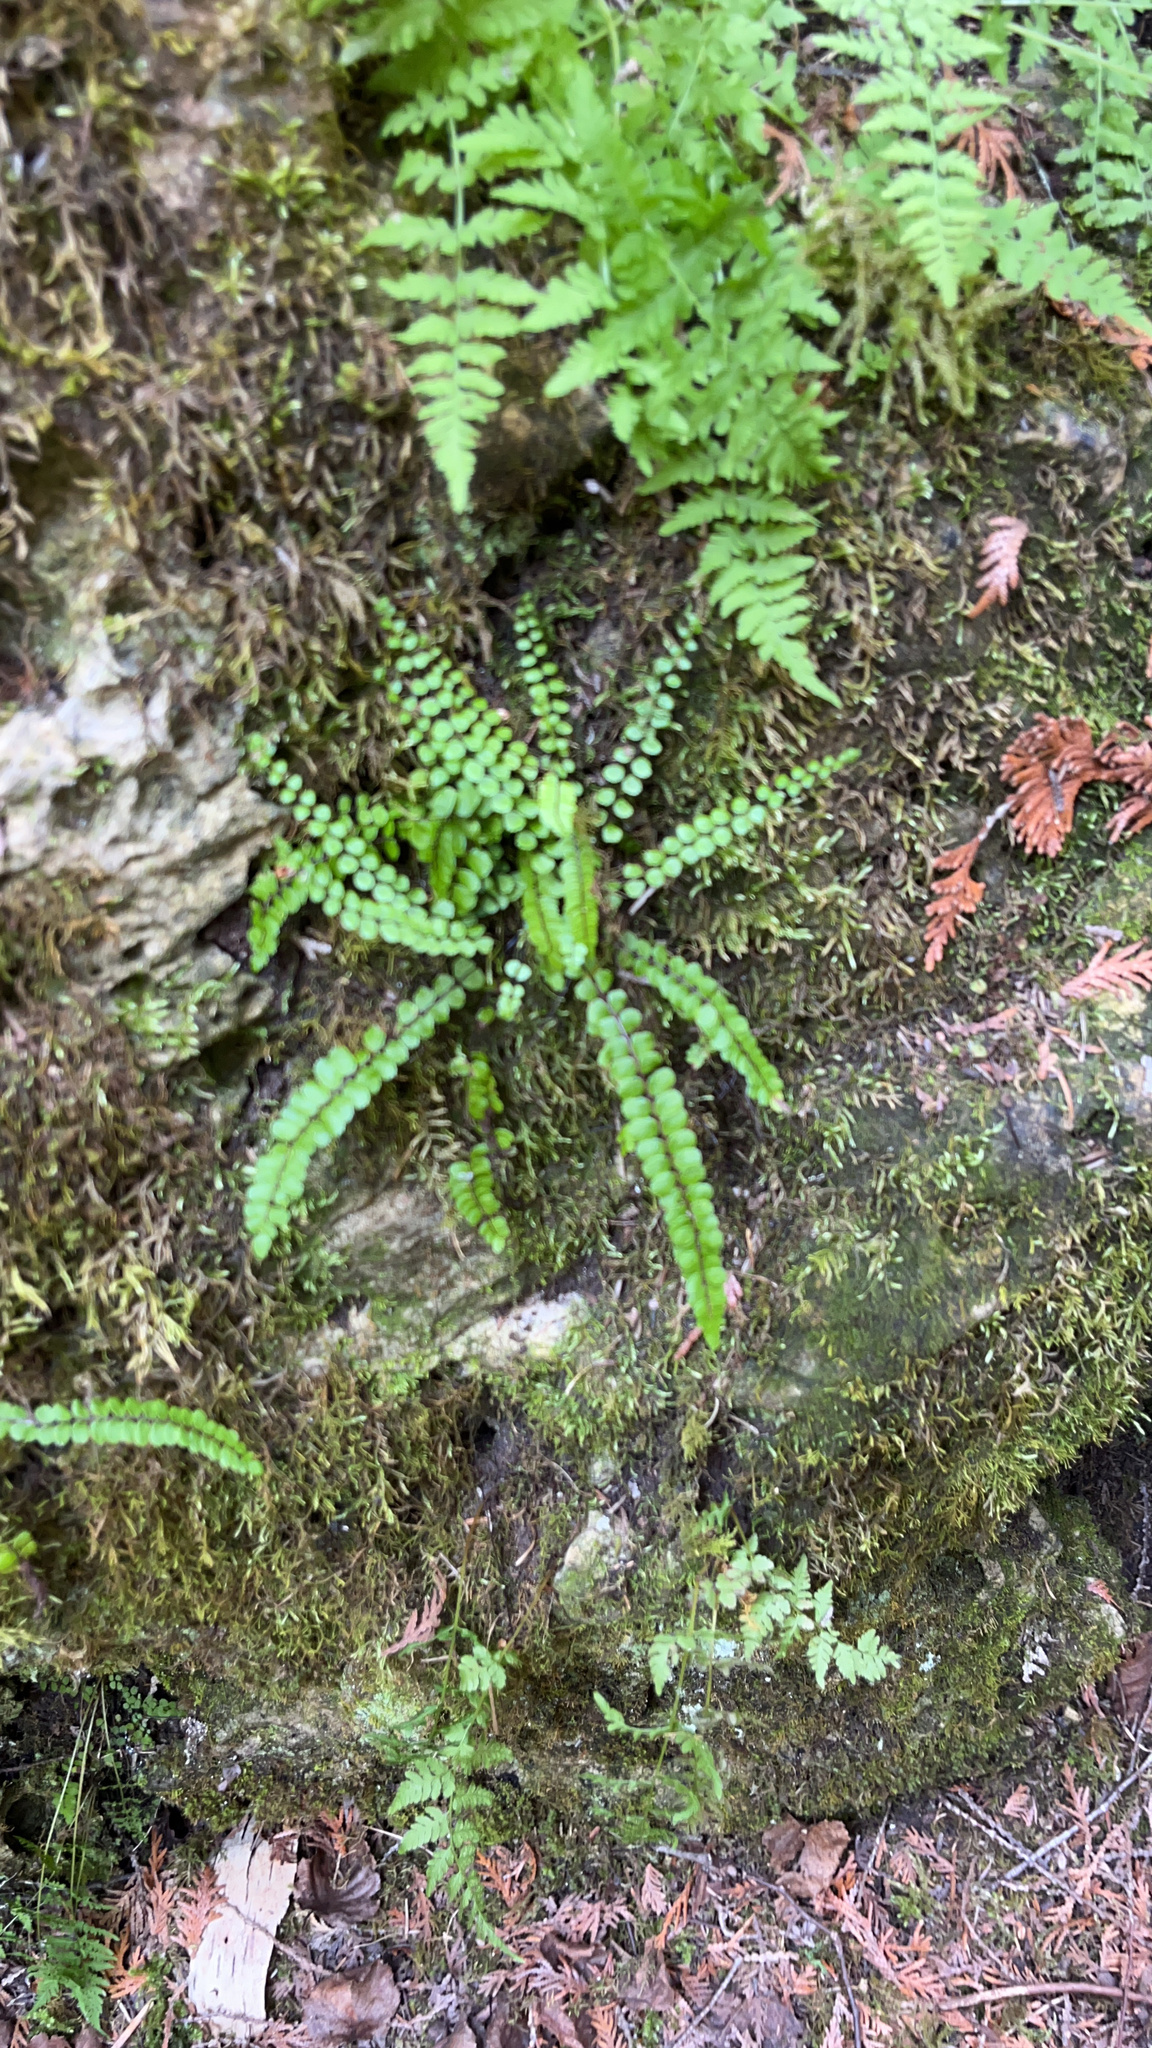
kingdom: Plantae
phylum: Tracheophyta
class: Polypodiopsida
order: Polypodiales
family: Aspleniaceae
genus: Asplenium
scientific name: Asplenium trichomanes
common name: Maidenhair spleenwort
